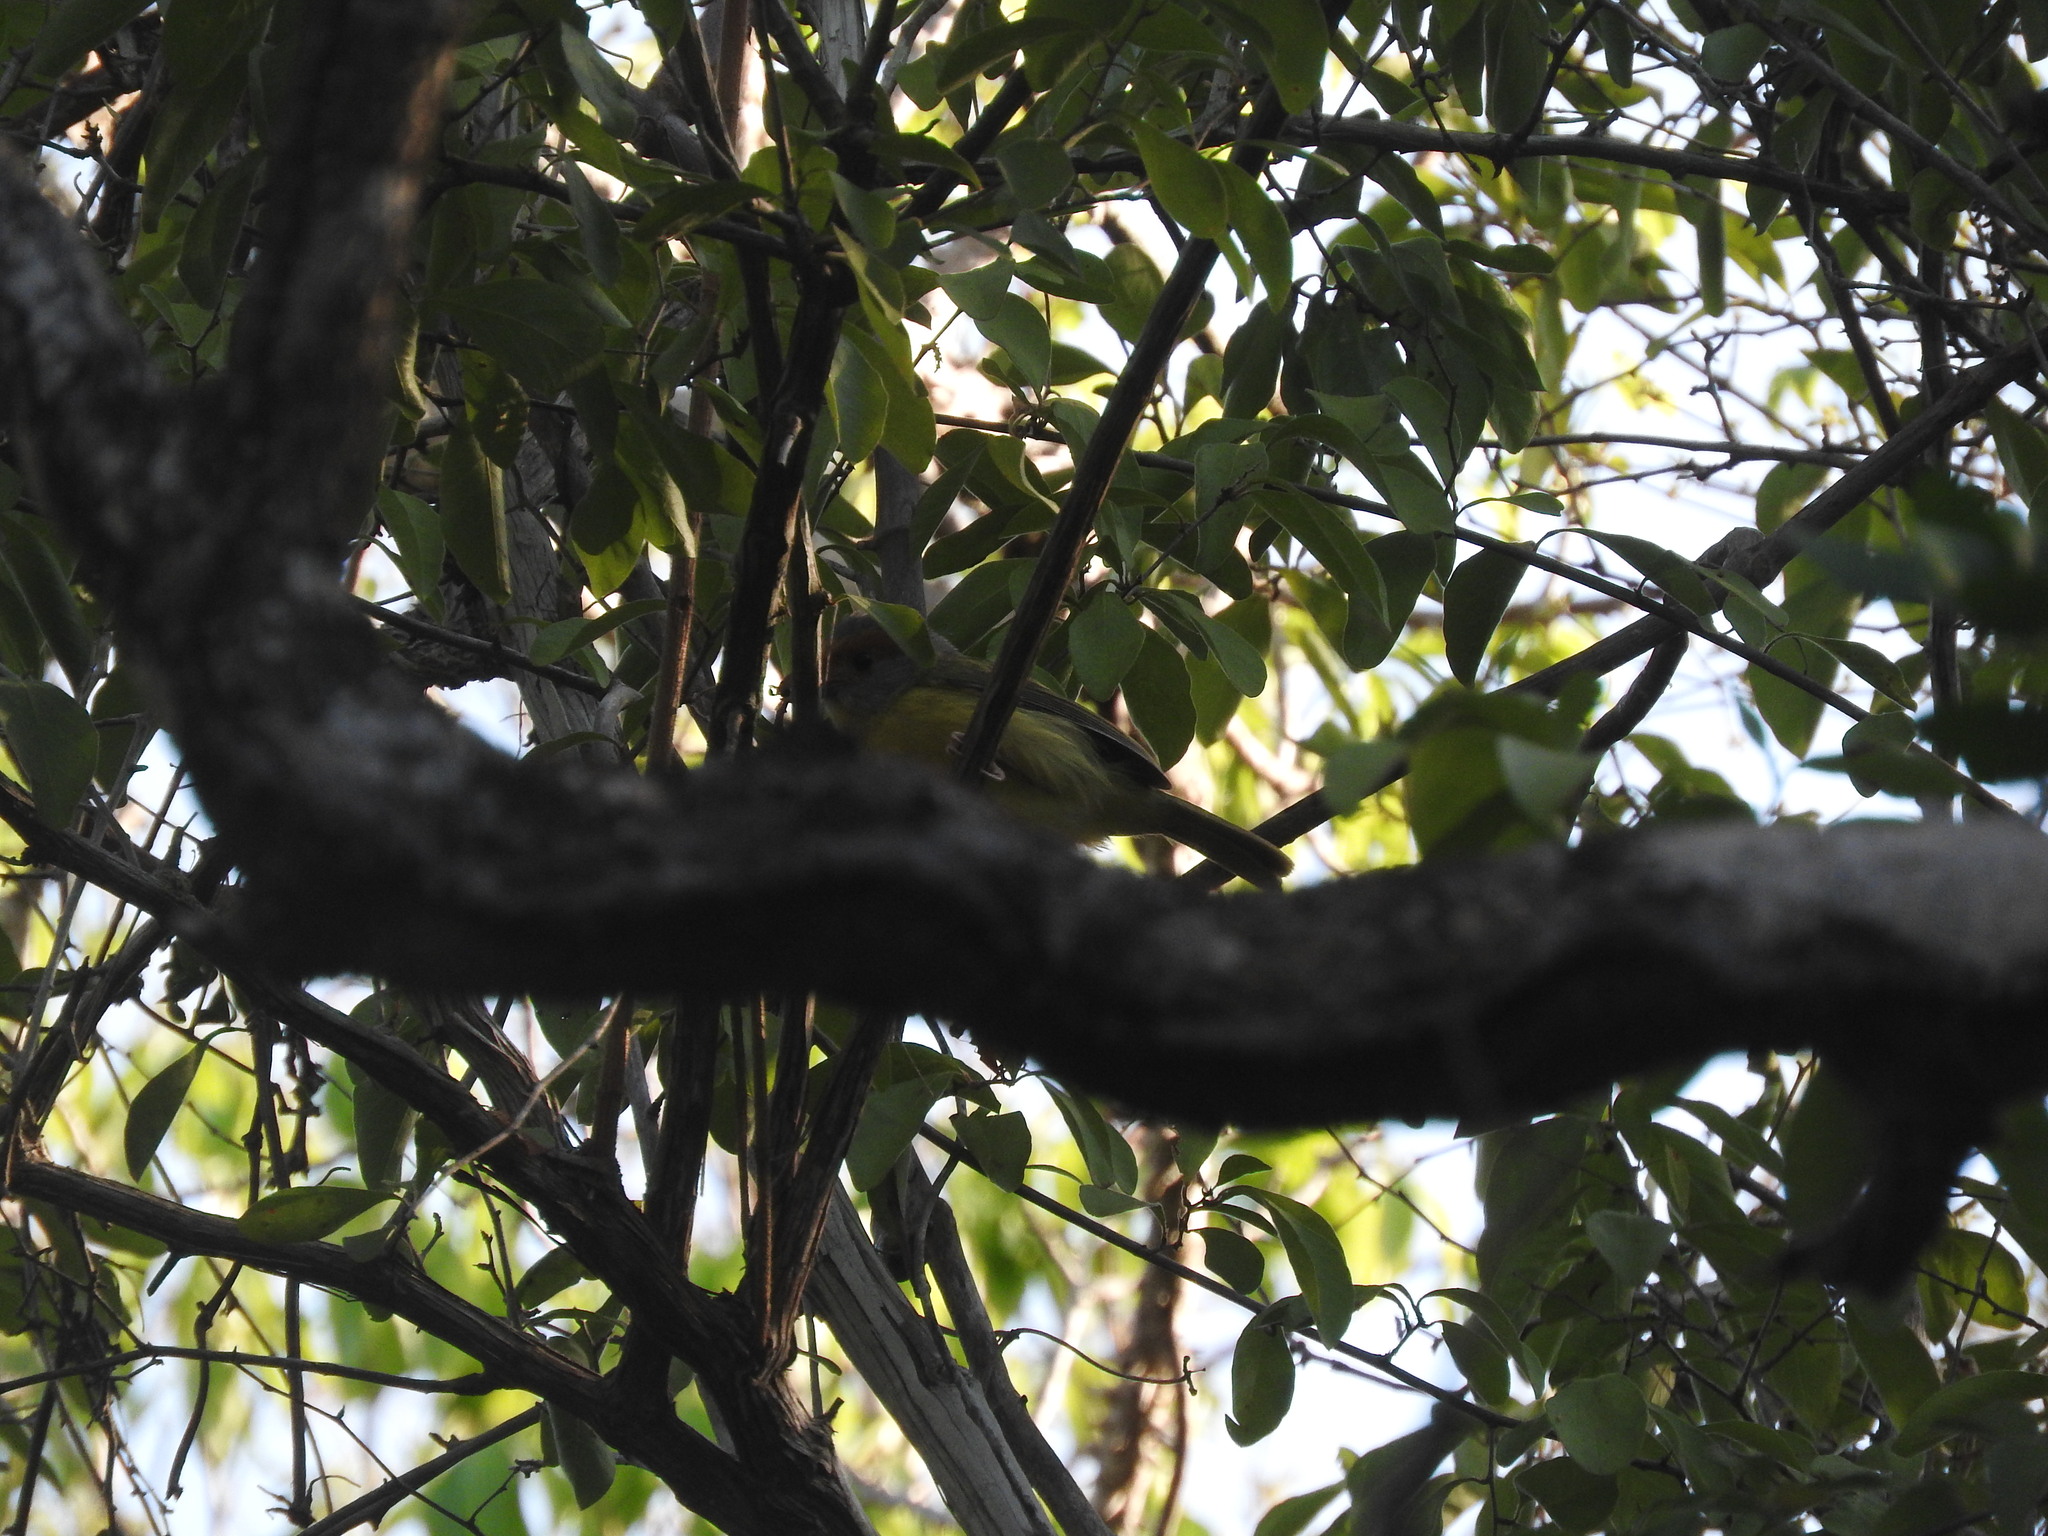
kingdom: Animalia
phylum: Chordata
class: Aves
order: Passeriformes
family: Vireonidae
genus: Cyclarhis
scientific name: Cyclarhis gujanensis
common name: Rufous-browed peppershrike
